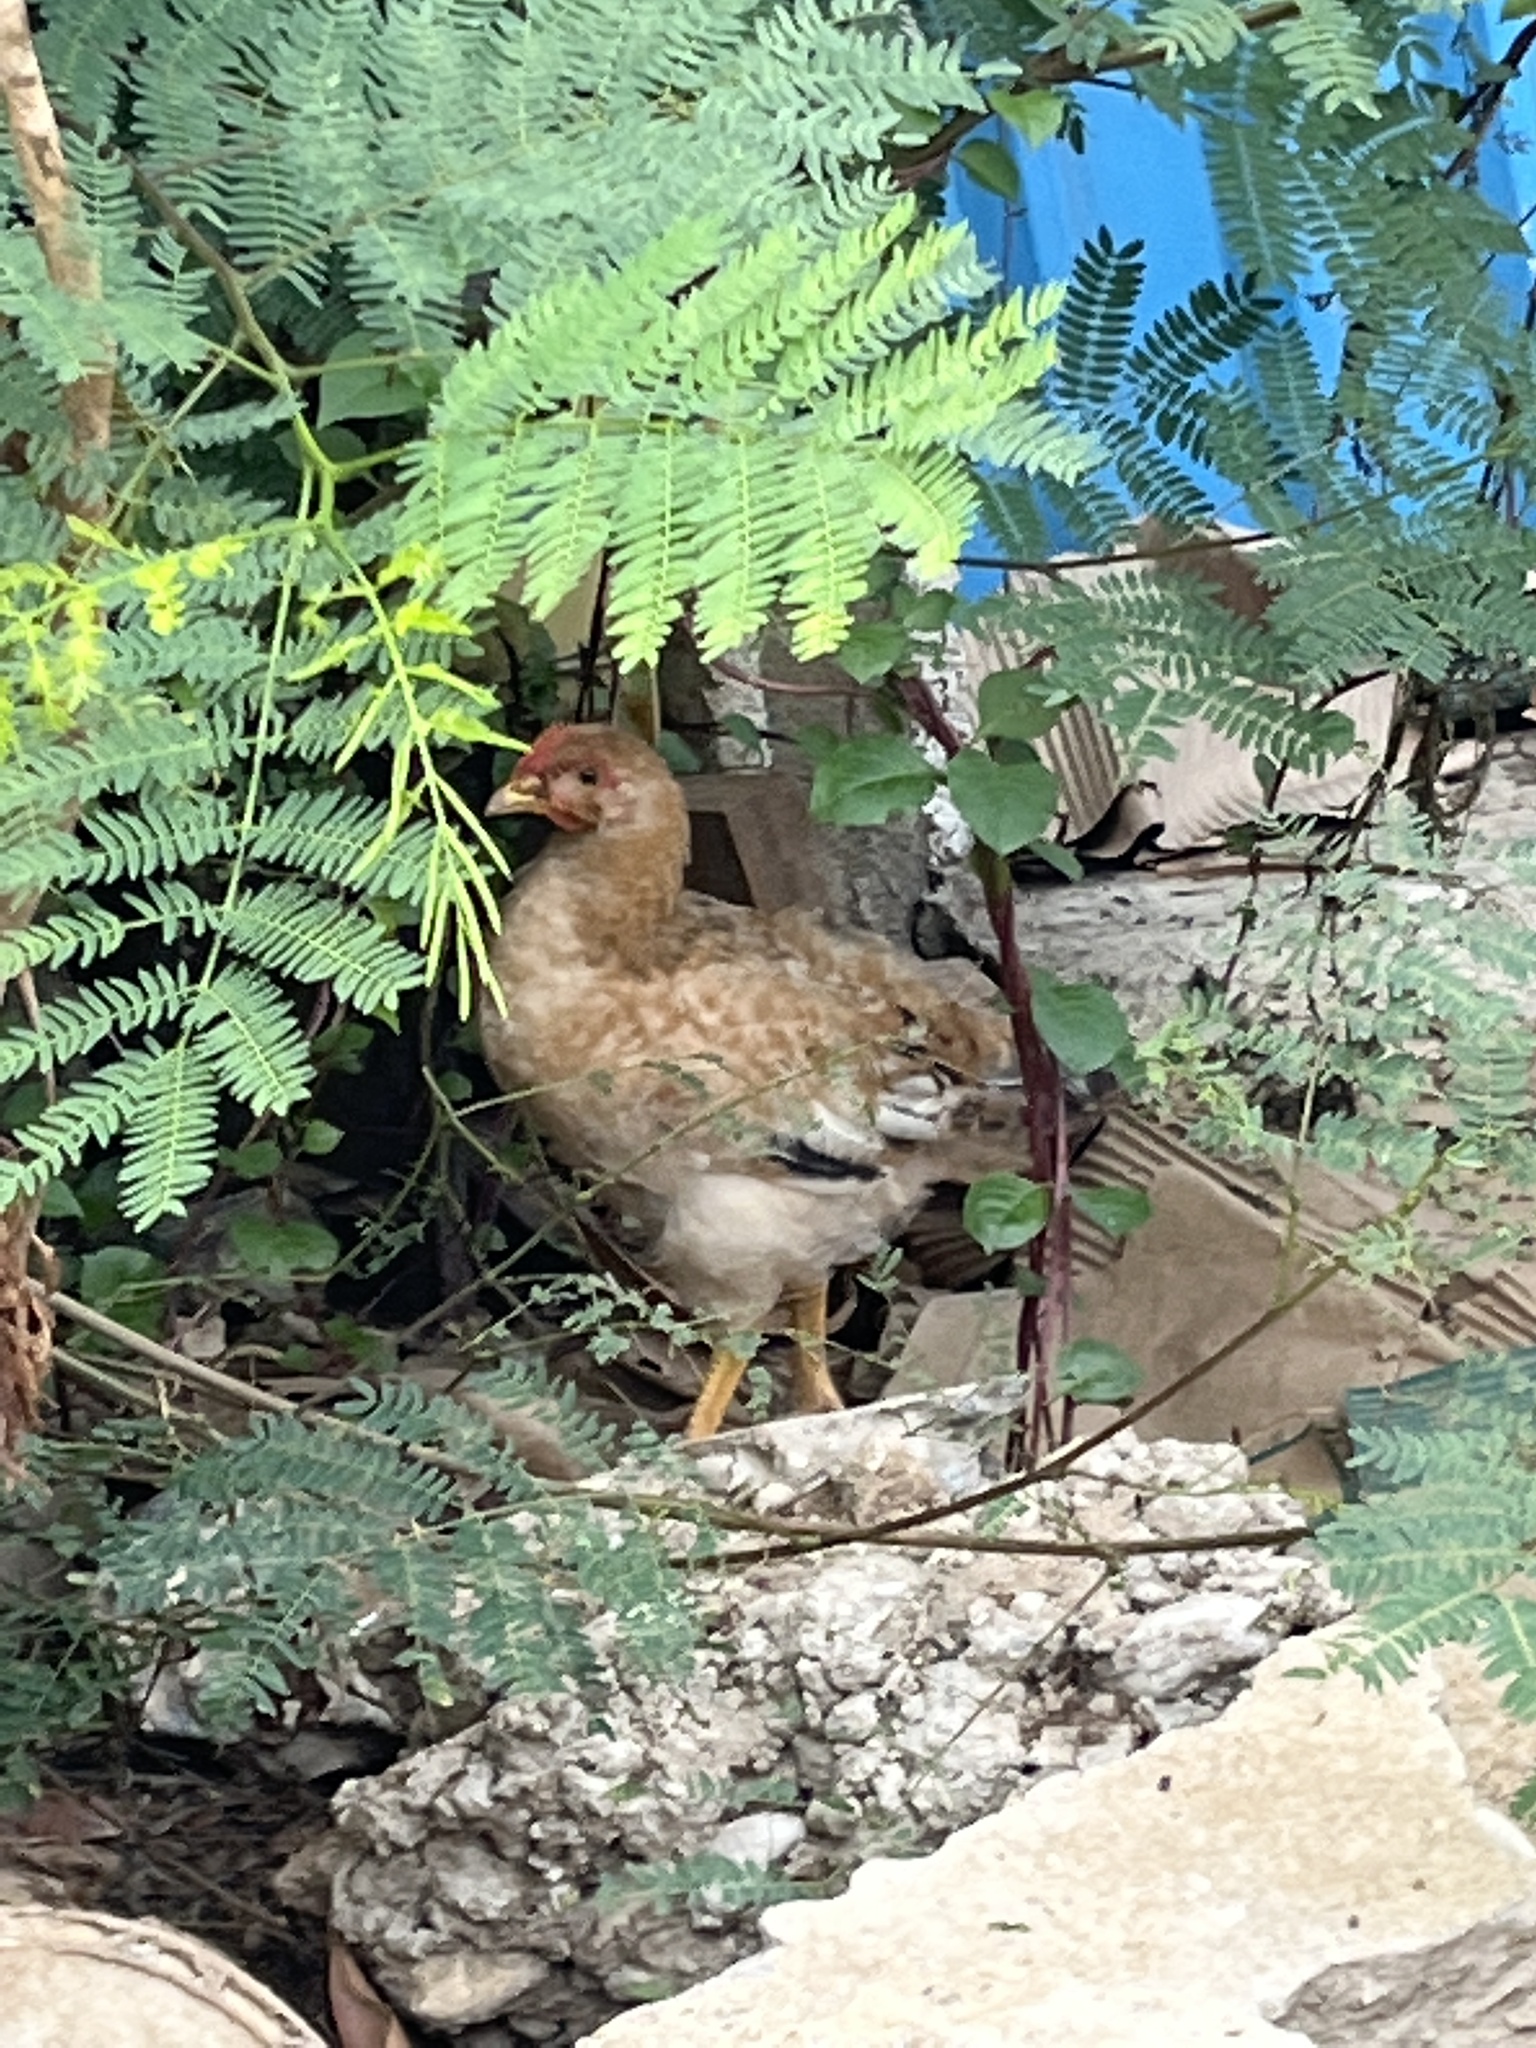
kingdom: Animalia
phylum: Chordata
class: Aves
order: Galliformes
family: Phasianidae
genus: Gallus
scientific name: Gallus gallus
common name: Red junglefowl
